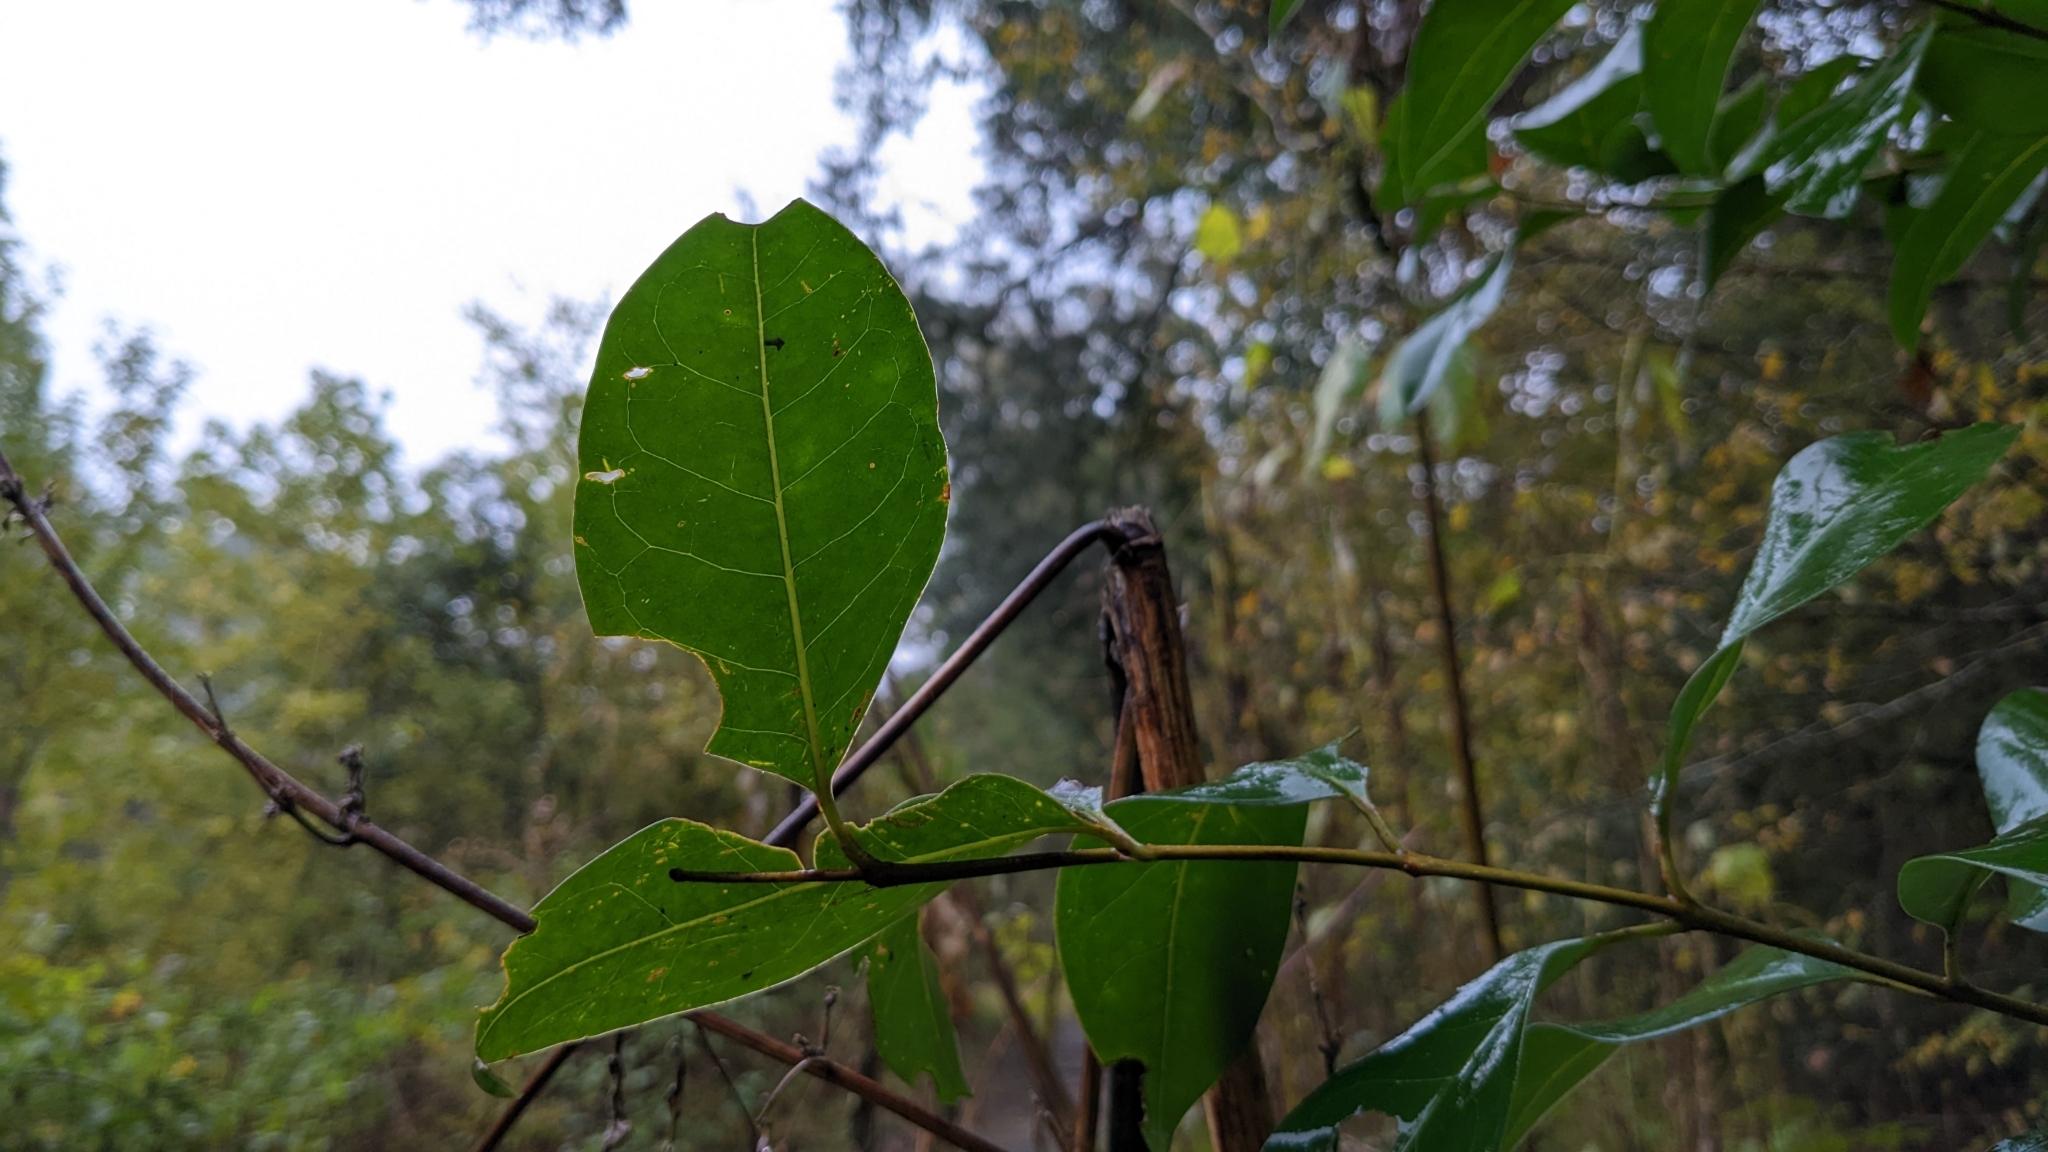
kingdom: Plantae
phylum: Tracheophyta
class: Magnoliopsida
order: Lamiales
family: Oleaceae
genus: Ligustrum
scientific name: Ligustrum lucidum
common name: Glossy privet
